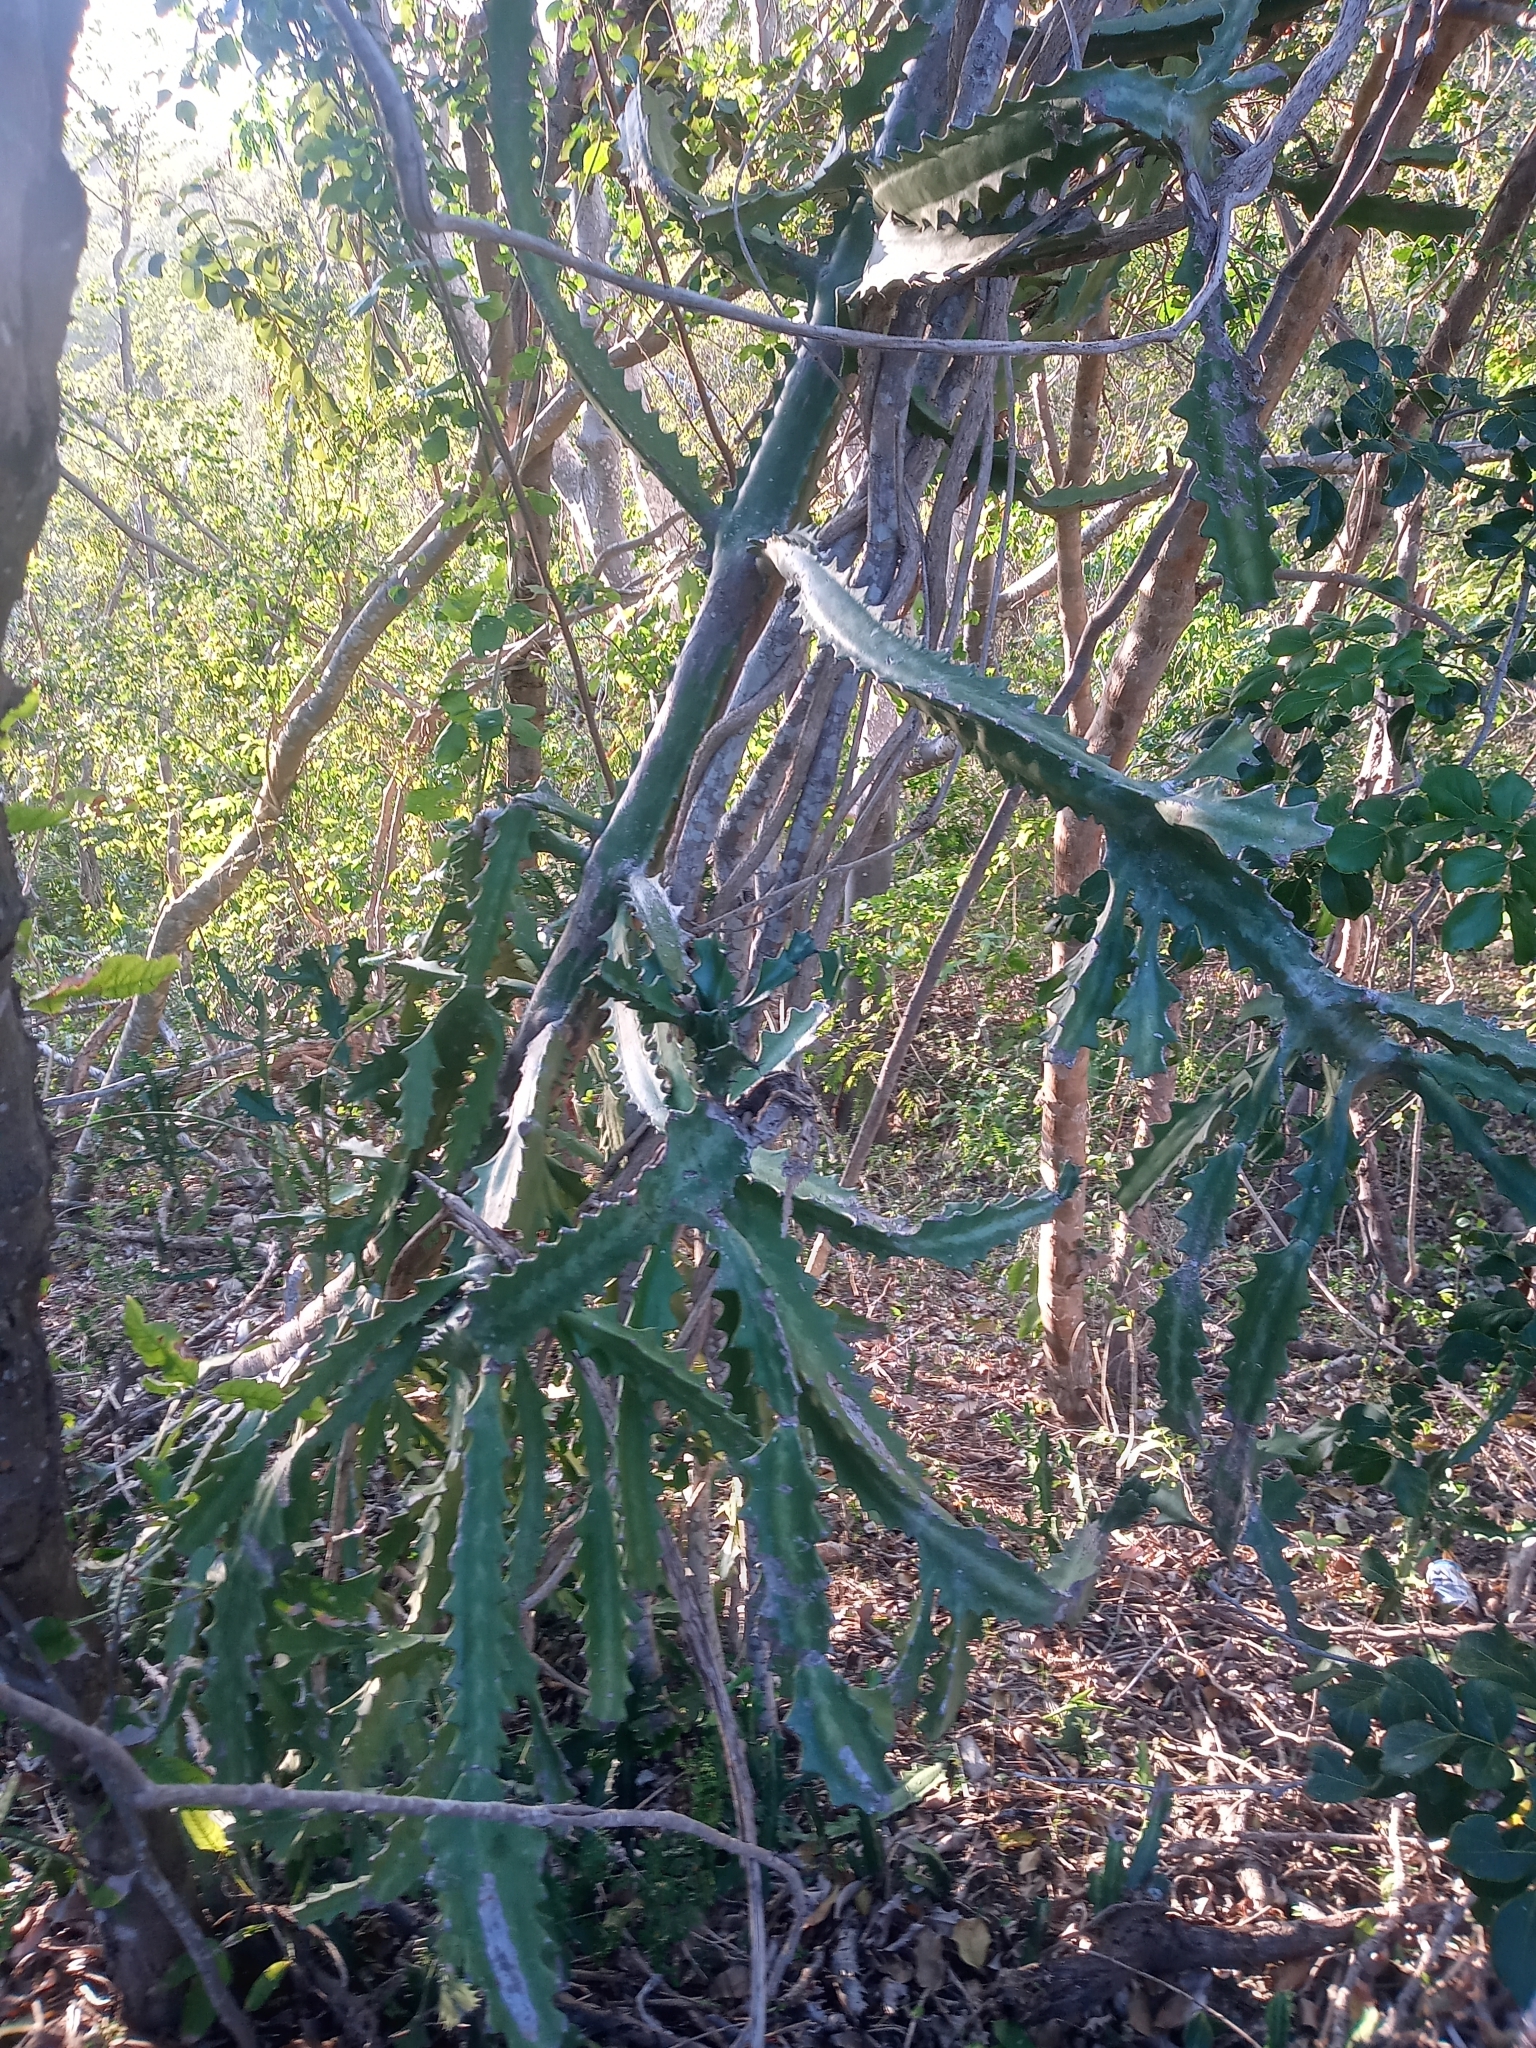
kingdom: Plantae
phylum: Tracheophyta
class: Magnoliopsida
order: Malpighiales
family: Euphorbiaceae
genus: Euphorbia
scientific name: Euphorbia lactea
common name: Mottled spurge
